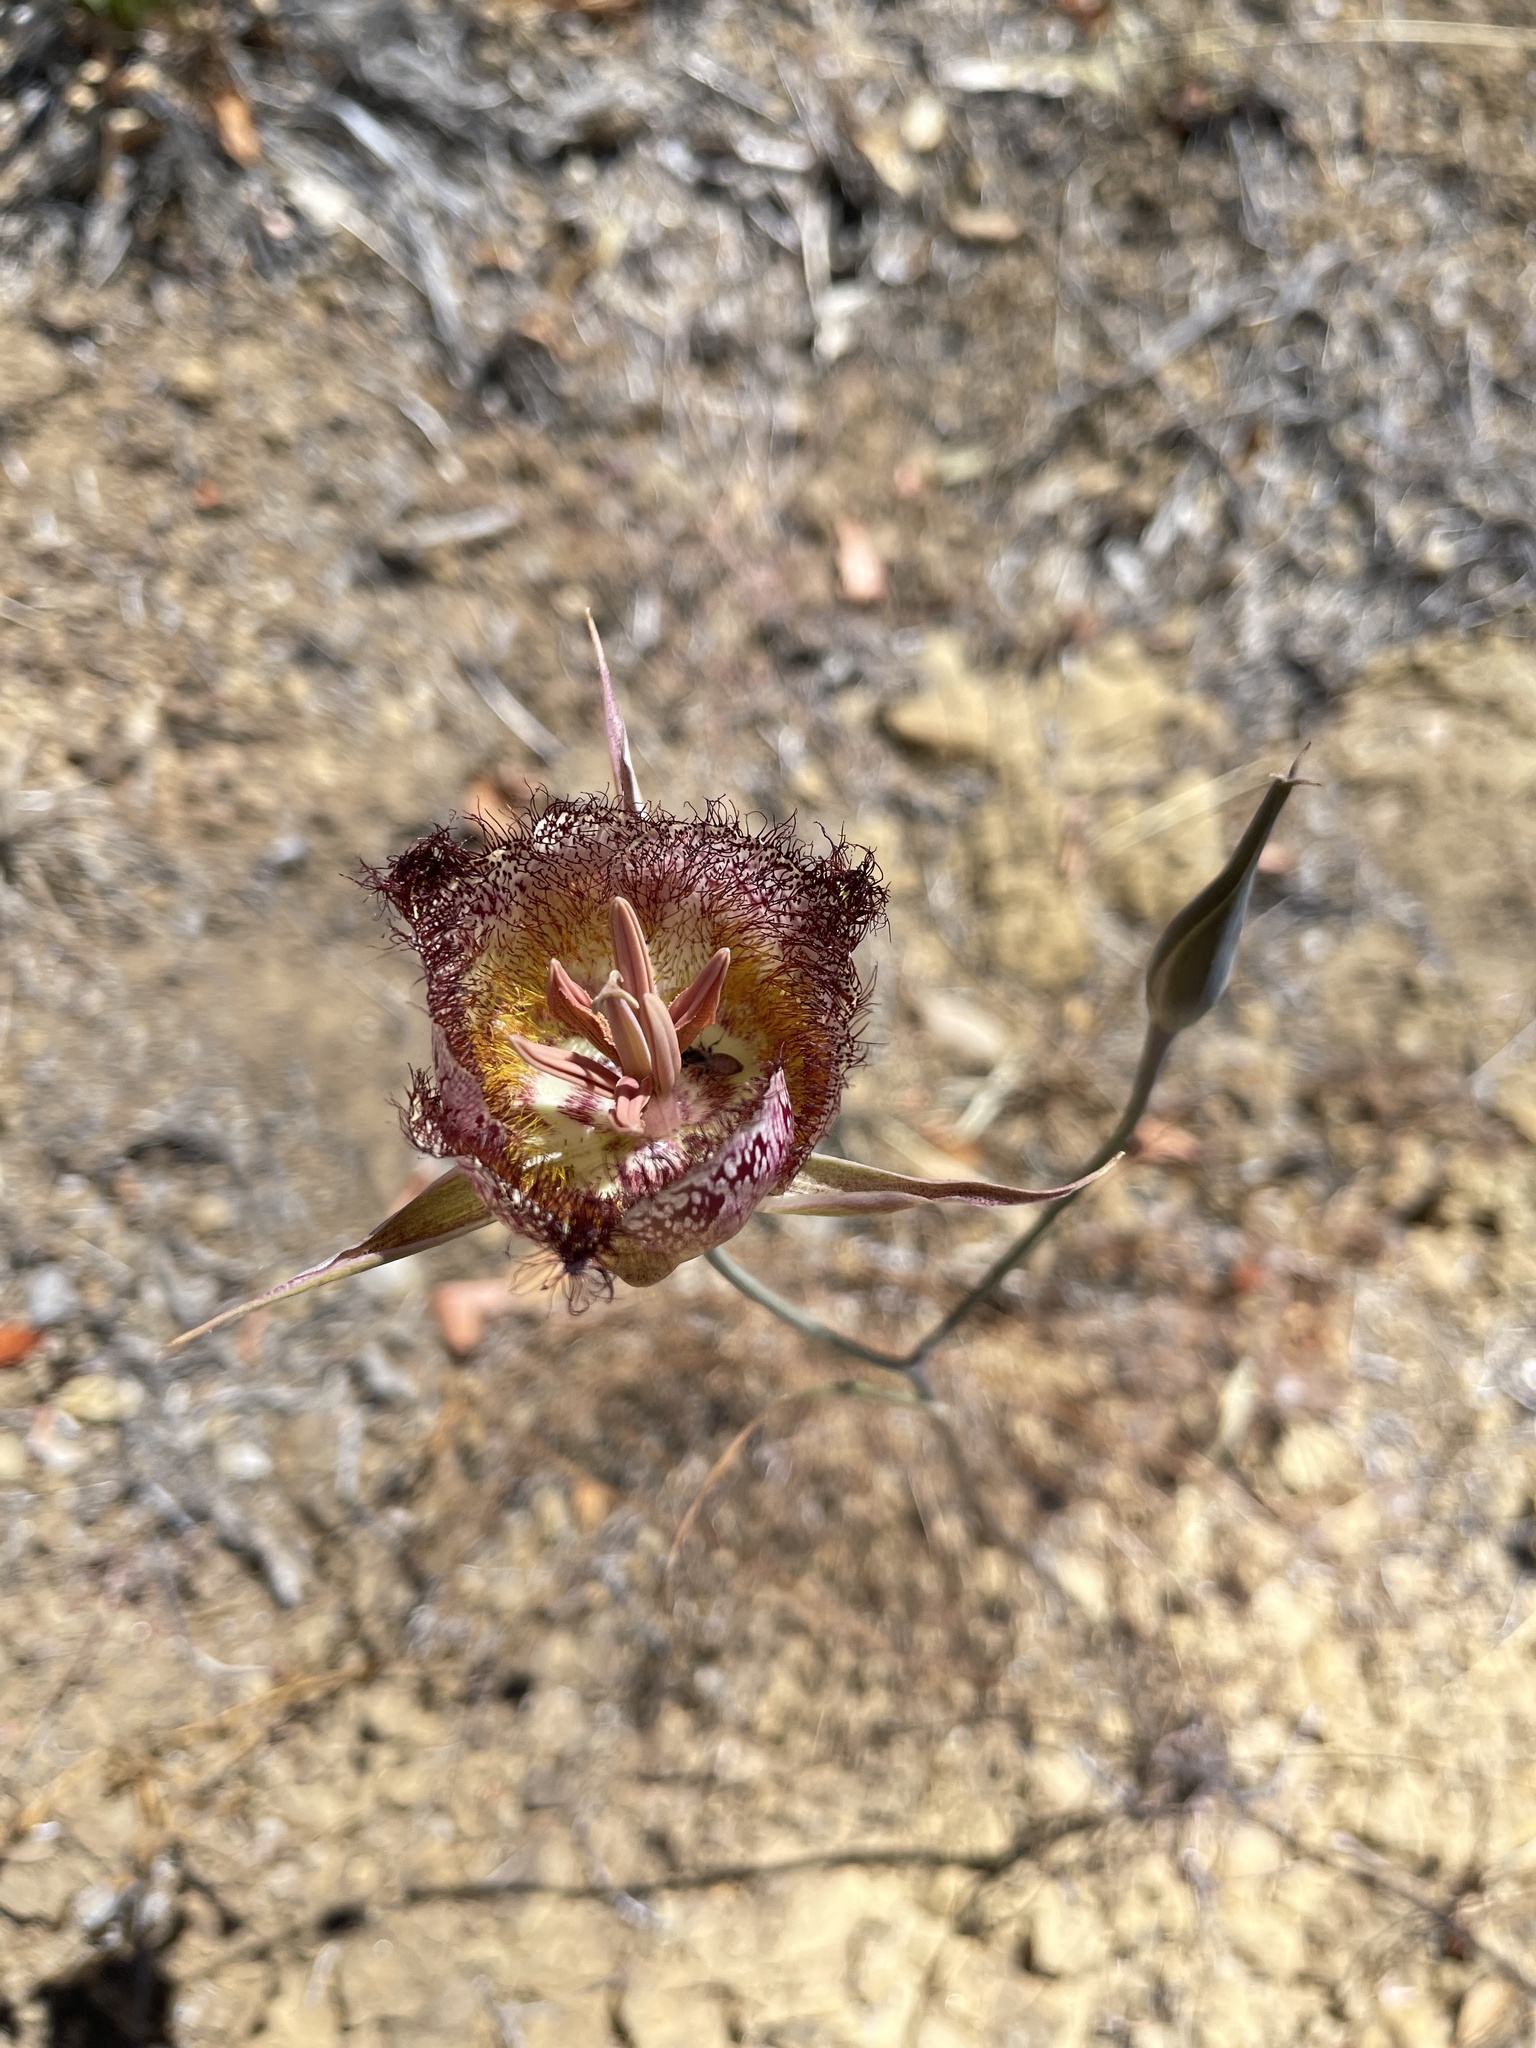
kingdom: Plantae
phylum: Tracheophyta
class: Liliopsida
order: Liliales
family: Liliaceae
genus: Calochortus
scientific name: Calochortus fimbriatus
